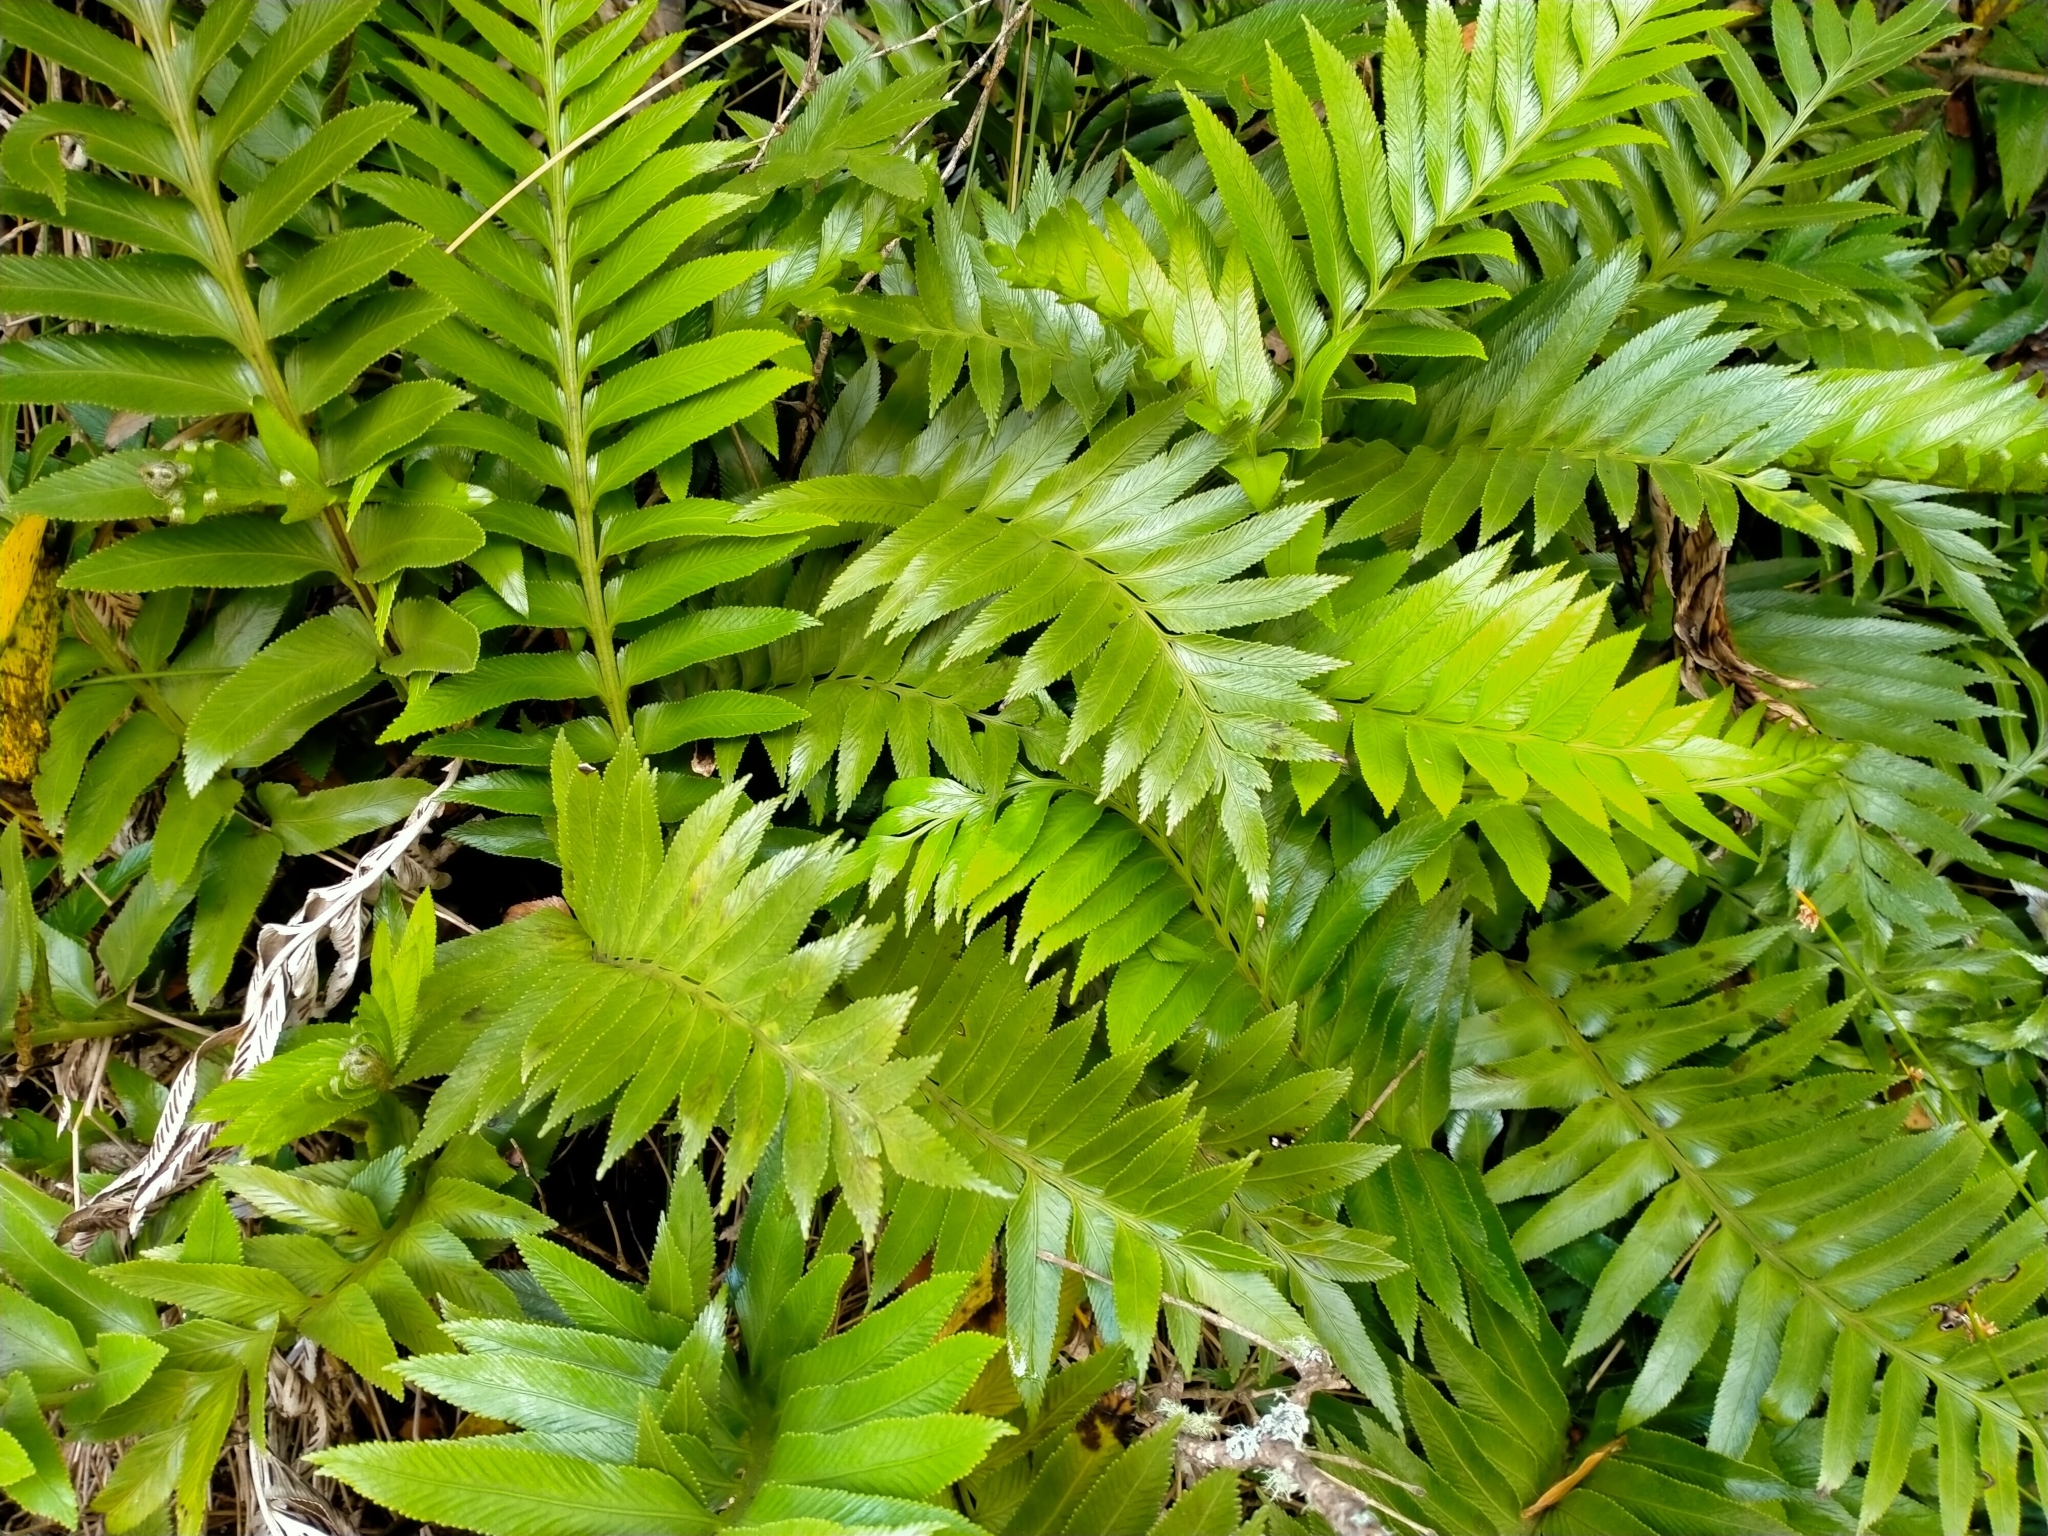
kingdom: Plantae
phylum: Tracheophyta
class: Polypodiopsida
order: Polypodiales
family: Aspleniaceae
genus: Asplenium
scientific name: Asplenium obtusatum
